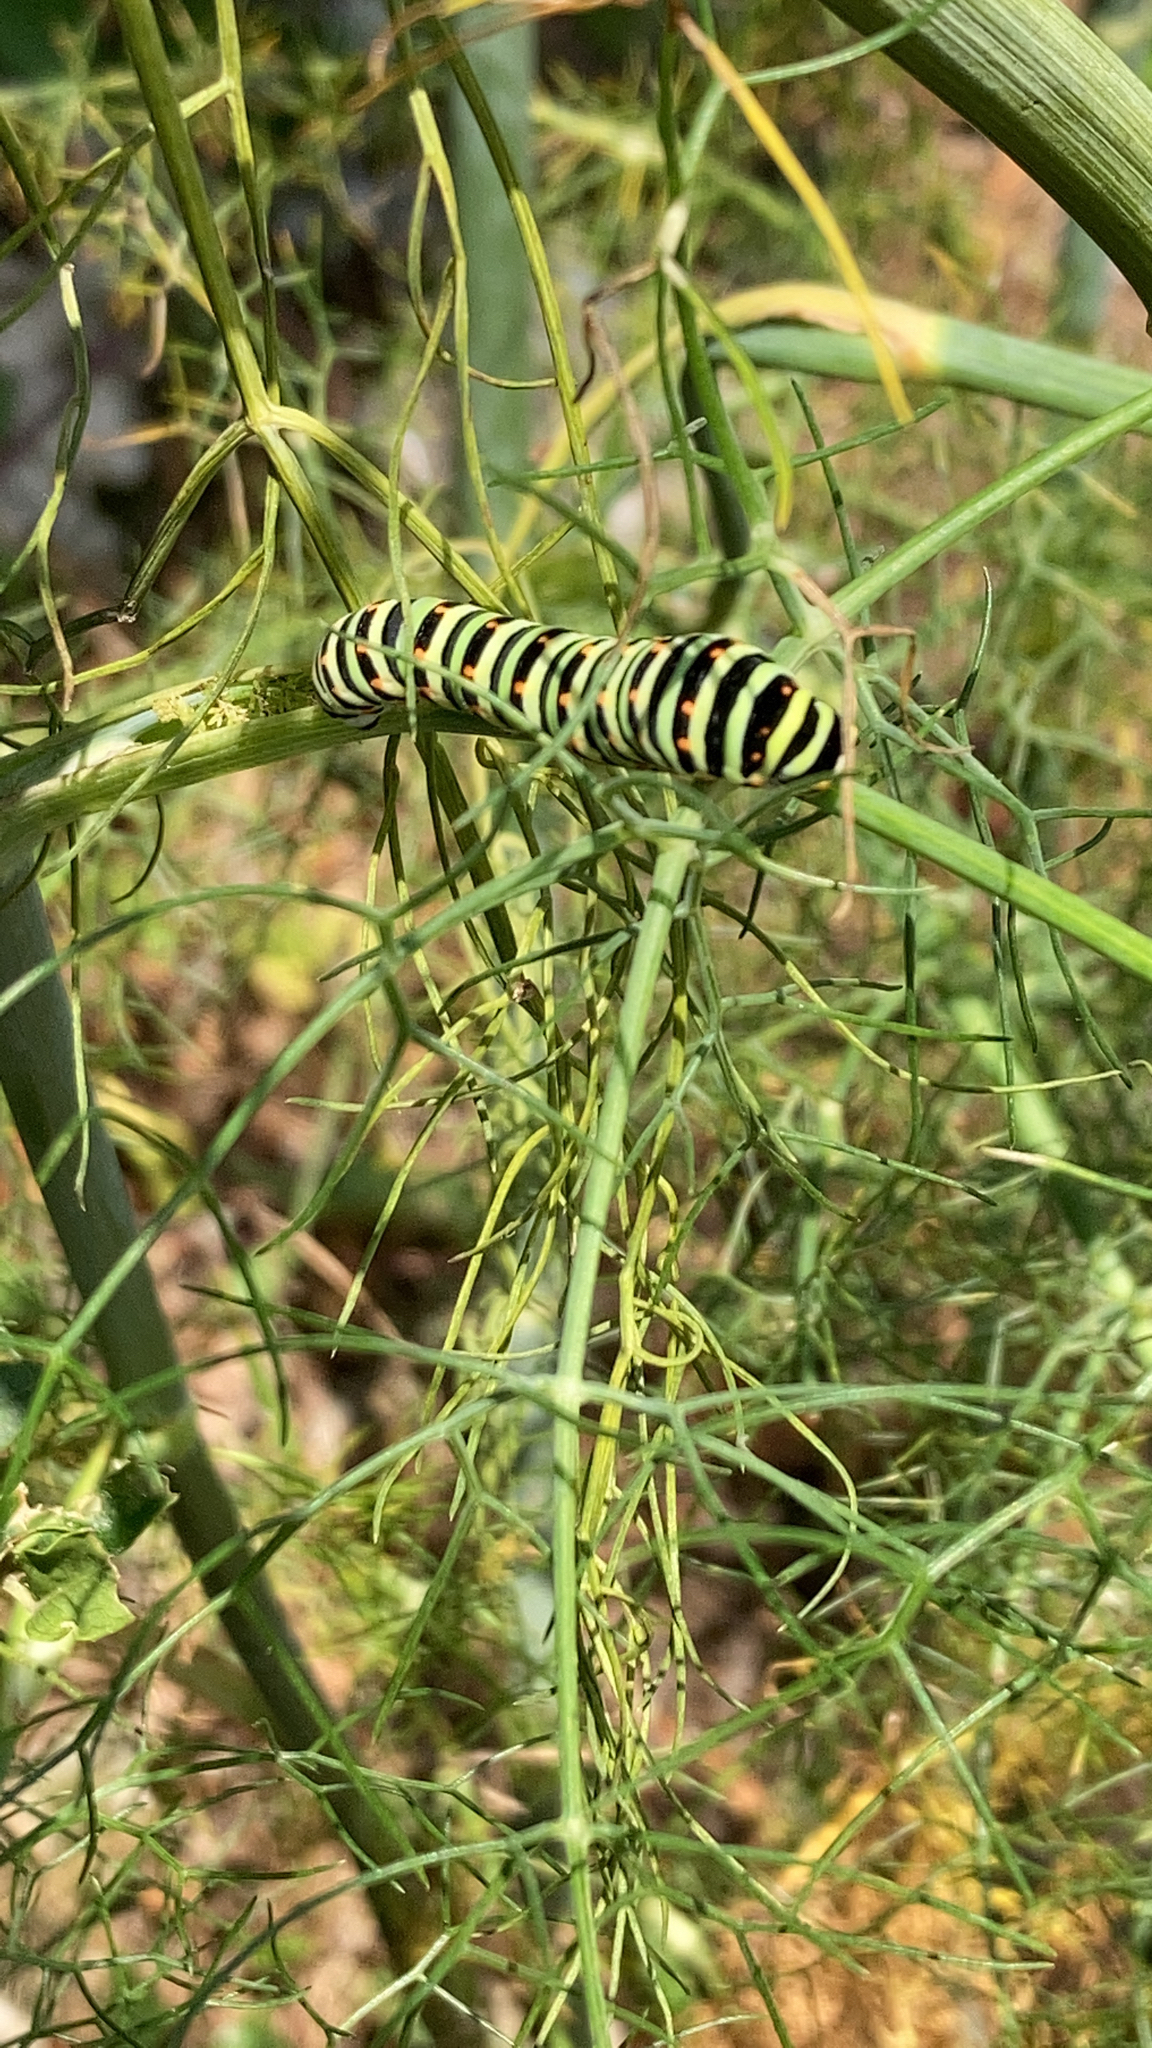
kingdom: Animalia
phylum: Arthropoda
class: Insecta
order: Lepidoptera
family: Papilionidae
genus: Papilio
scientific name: Papilio machaon
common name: Swallowtail
